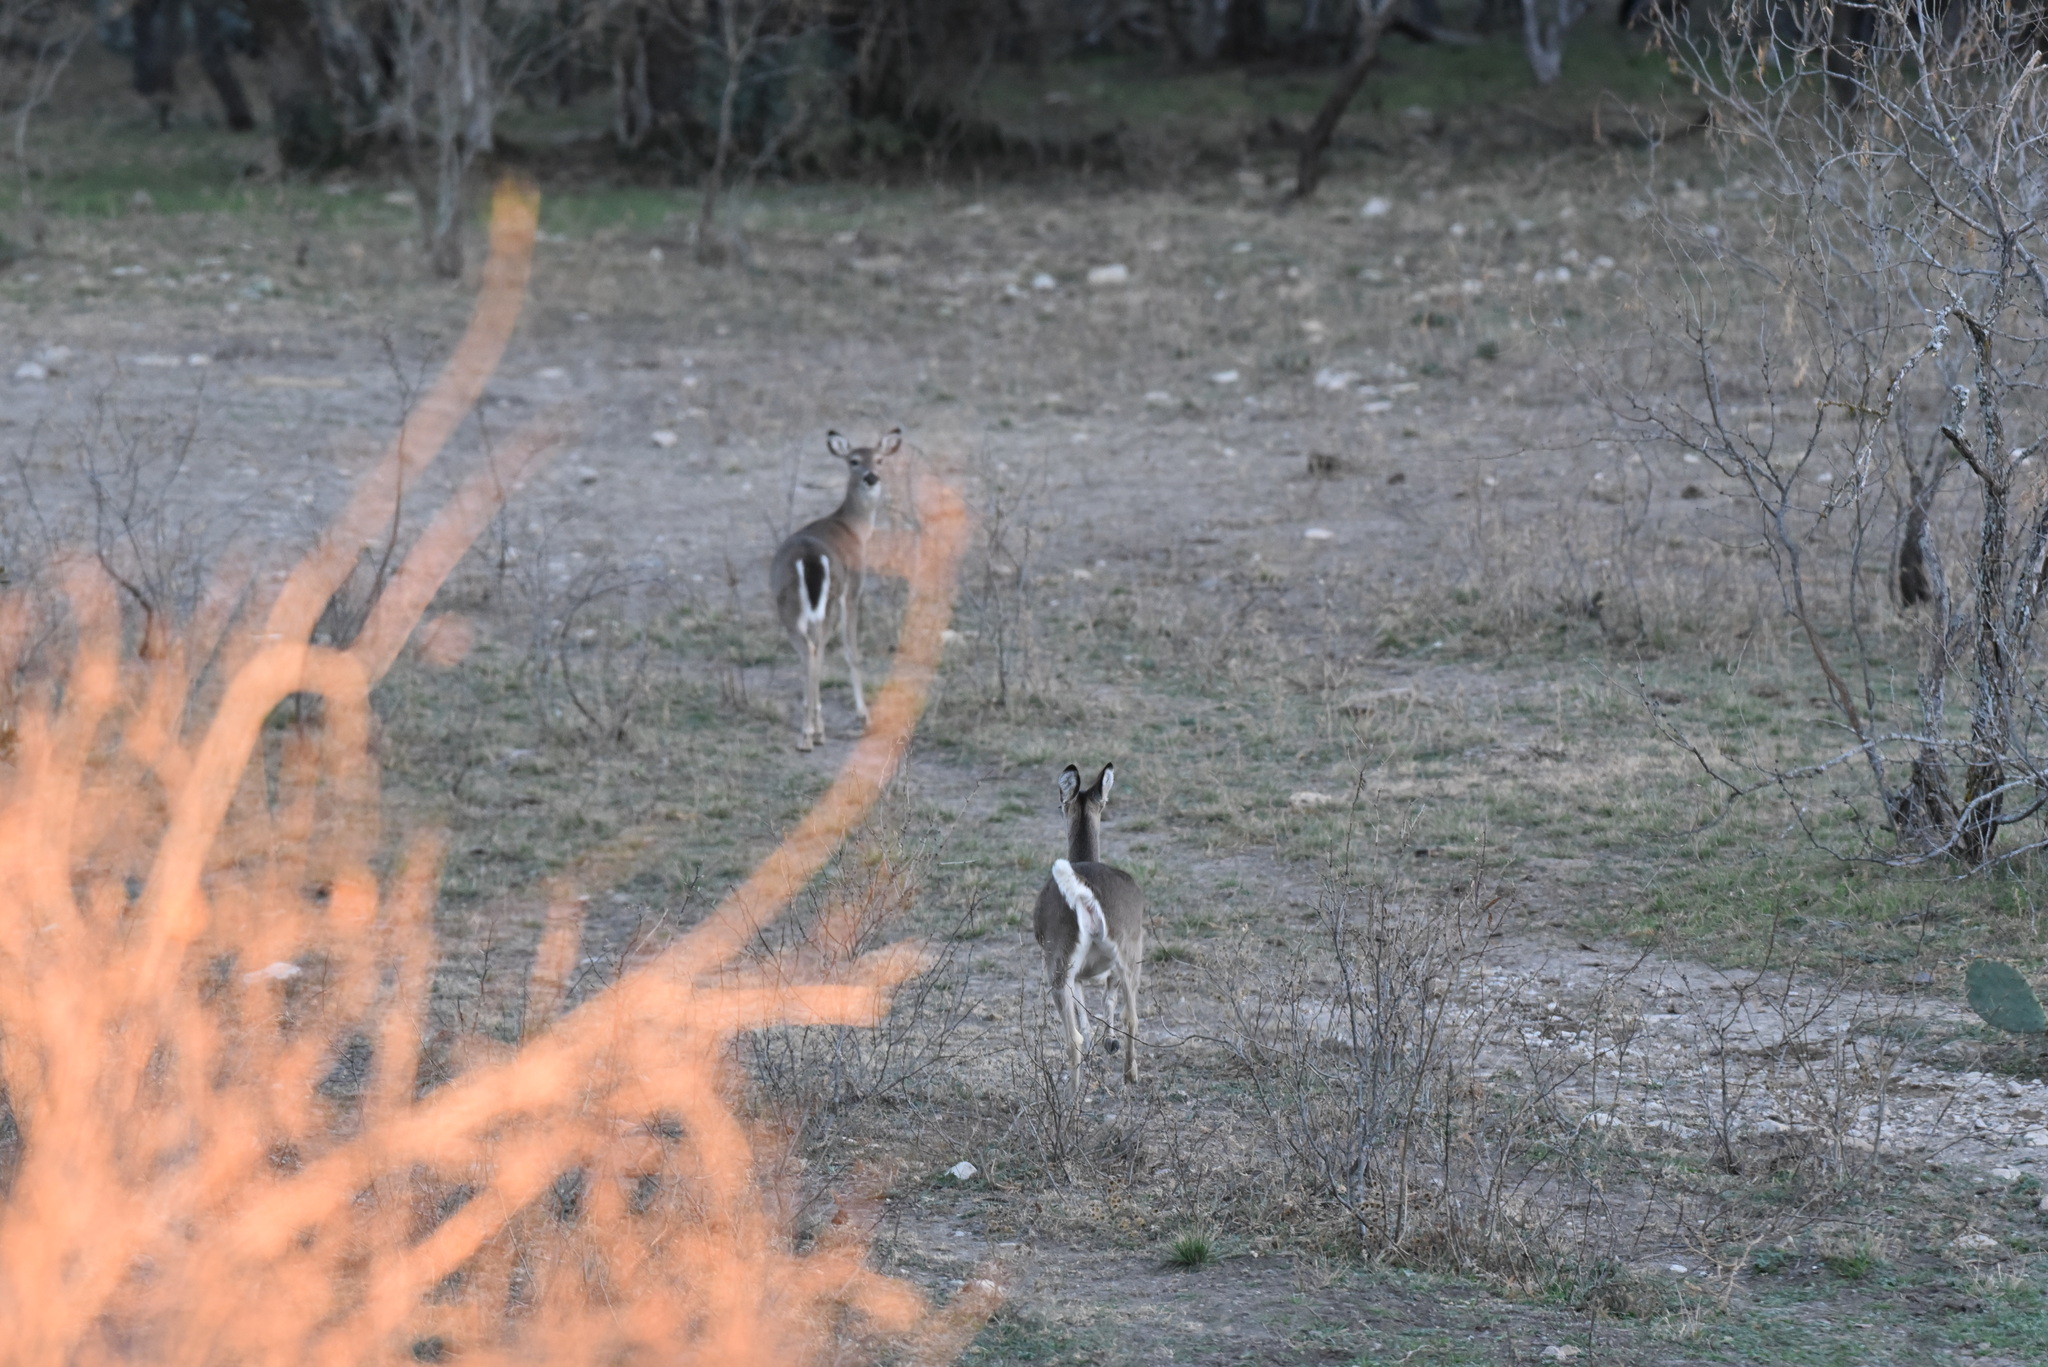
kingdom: Animalia
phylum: Chordata
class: Mammalia
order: Artiodactyla
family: Cervidae
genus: Odocoileus
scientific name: Odocoileus virginianus
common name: White-tailed deer
